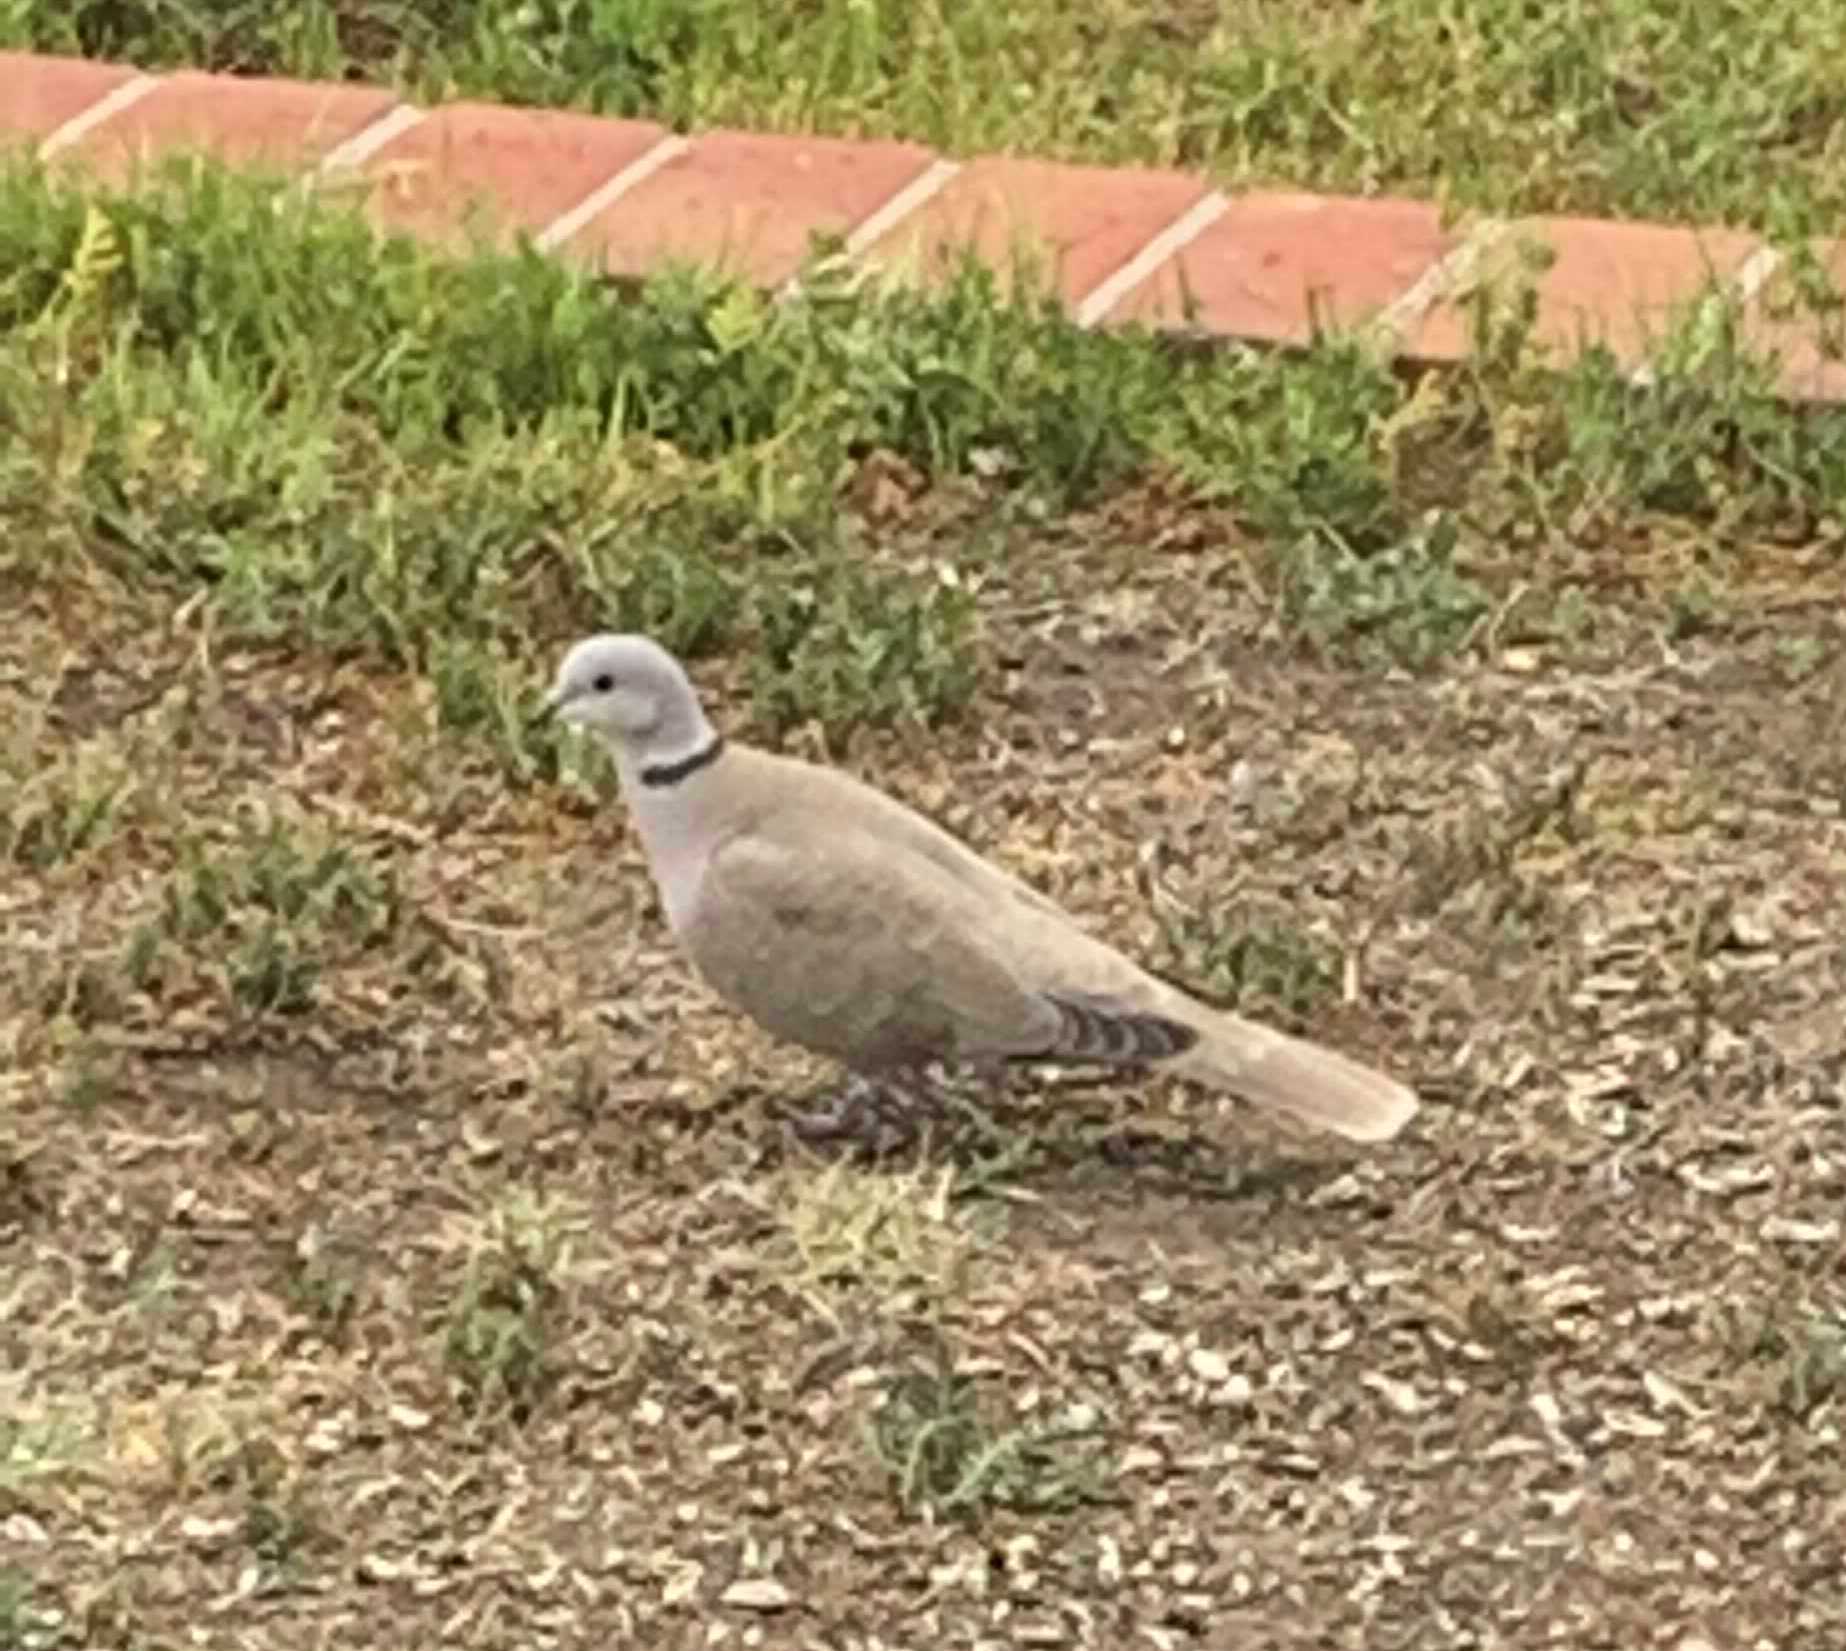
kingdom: Animalia
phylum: Chordata
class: Aves
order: Columbiformes
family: Columbidae
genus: Streptopelia
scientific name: Streptopelia decaocto
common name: Eurasian collared dove
